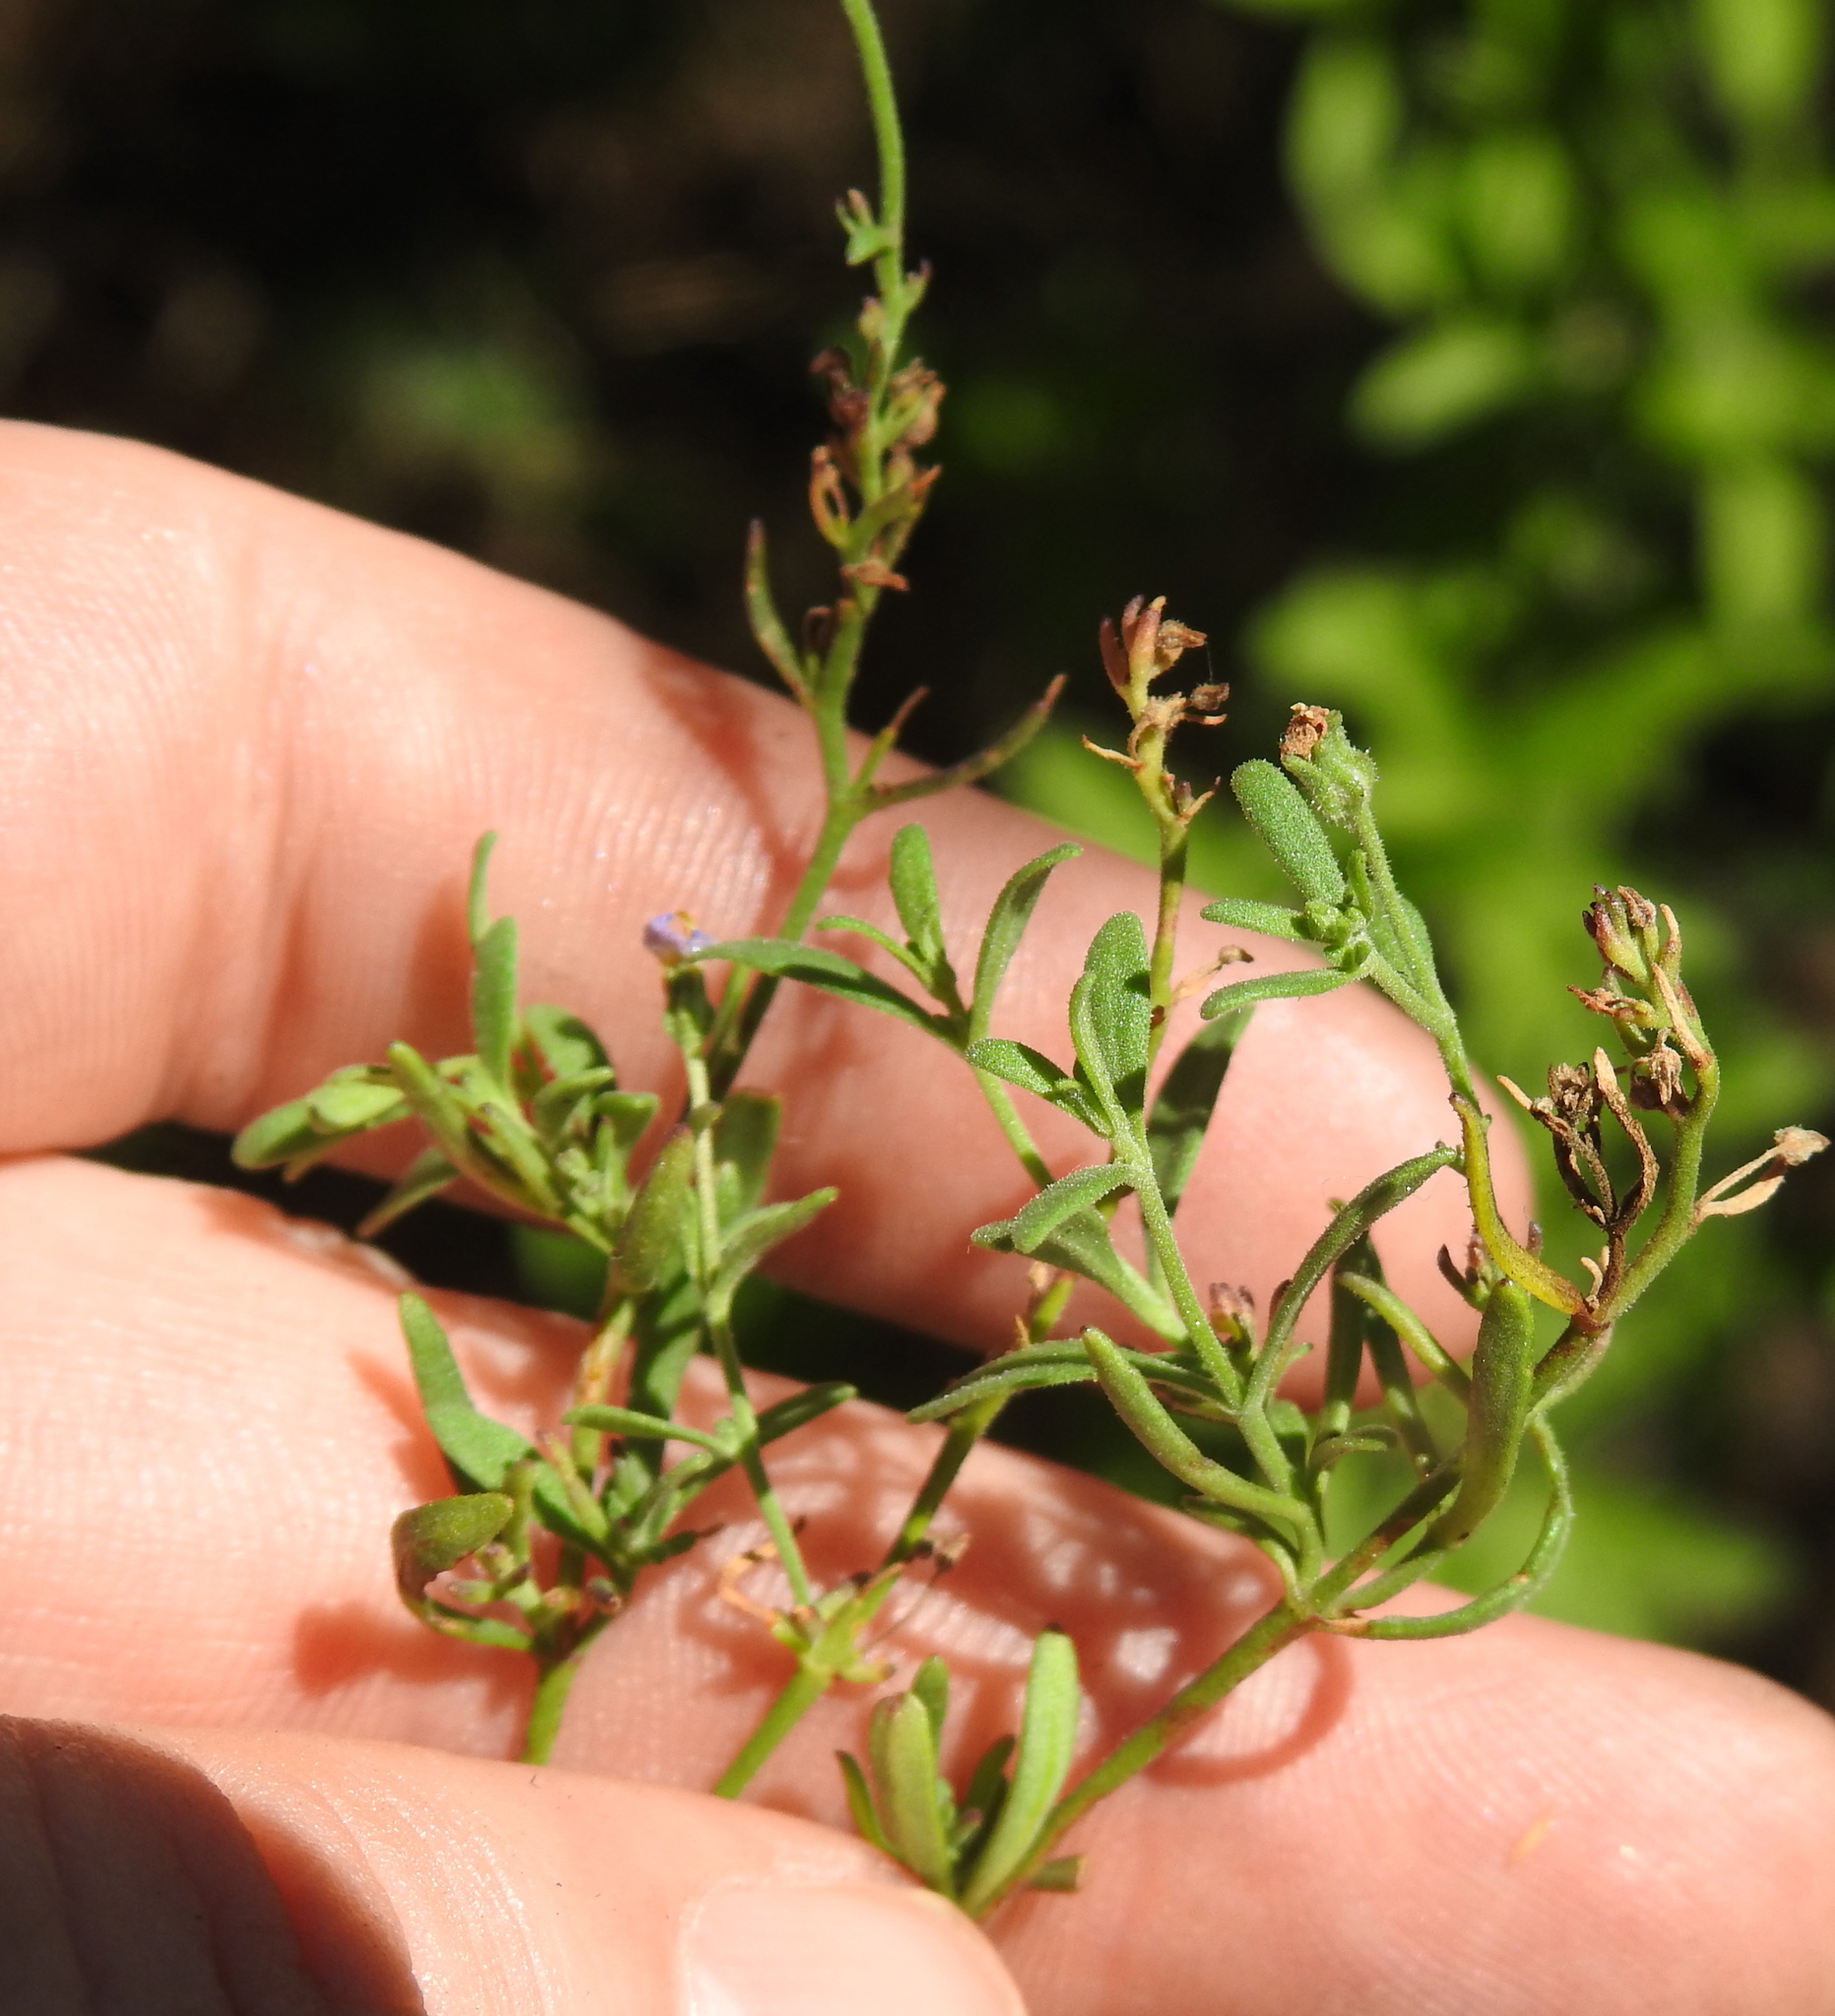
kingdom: Plantae
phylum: Tracheophyta
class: Magnoliopsida
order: Lamiales
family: Scrophulariaceae
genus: Chaenostoma
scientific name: Chaenostoma leve
